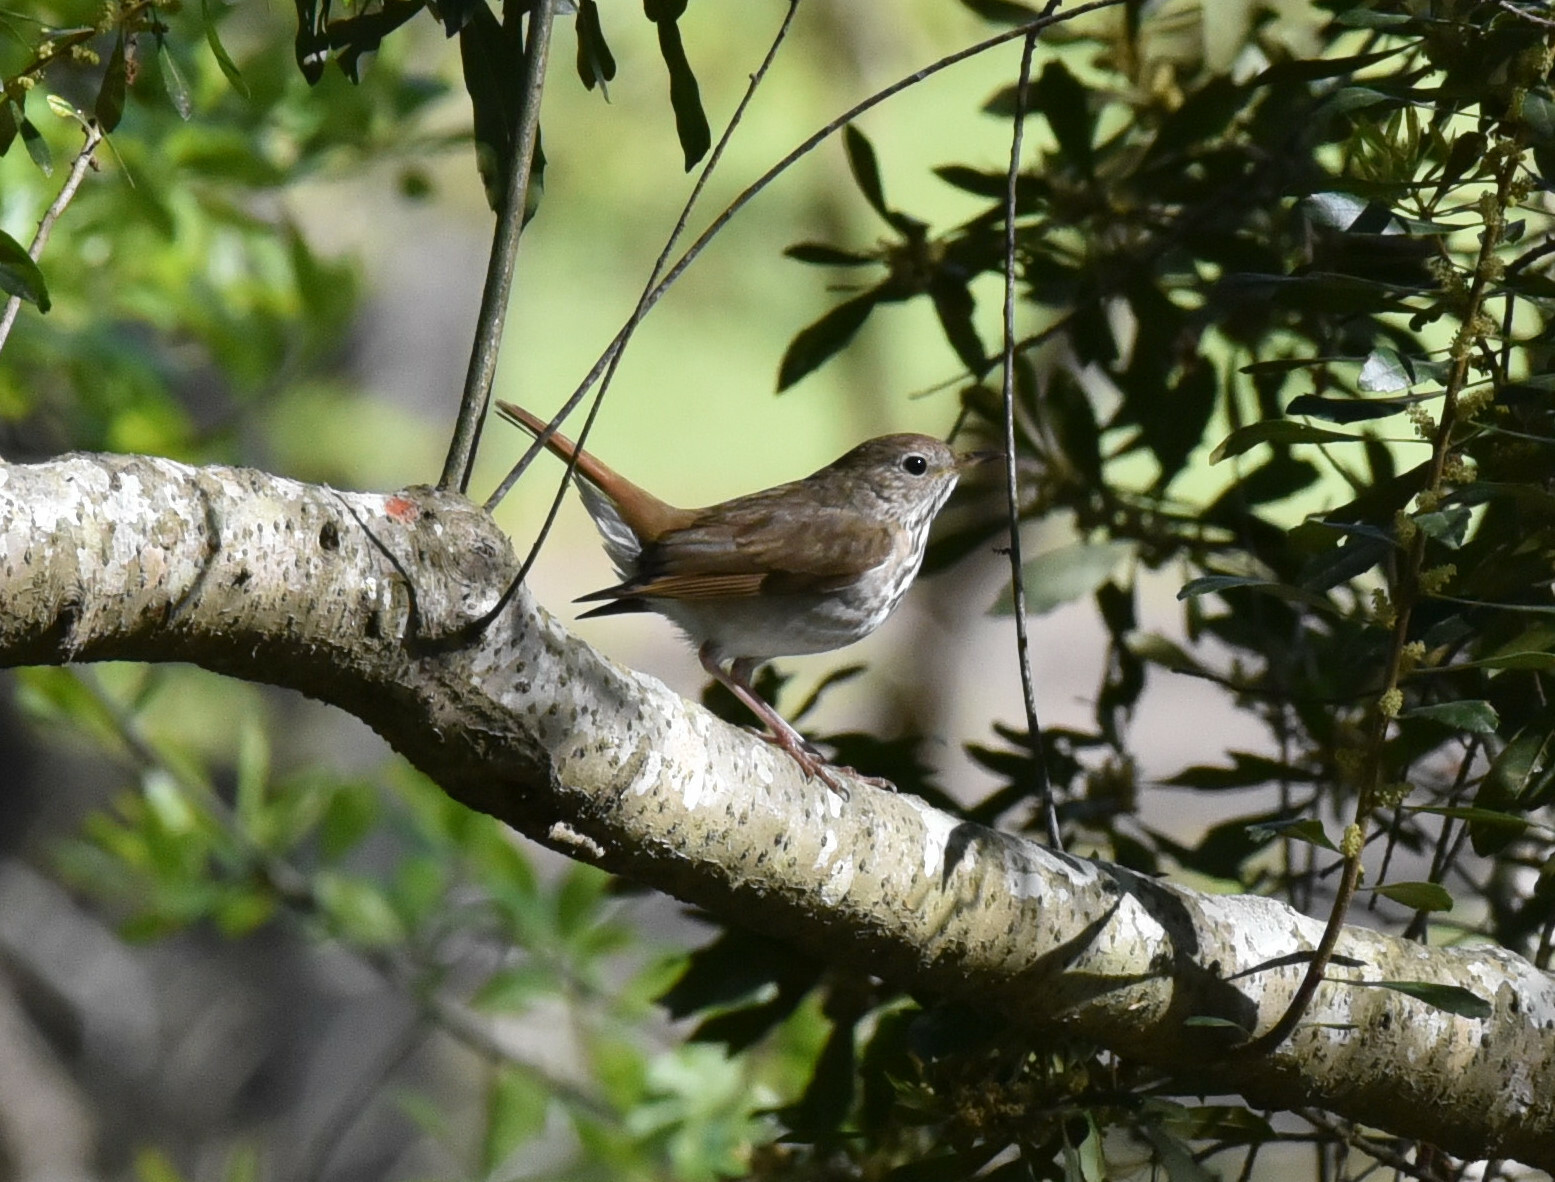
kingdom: Animalia
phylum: Chordata
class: Aves
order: Passeriformes
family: Turdidae
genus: Catharus
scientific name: Catharus guttatus
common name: Hermit thrush
